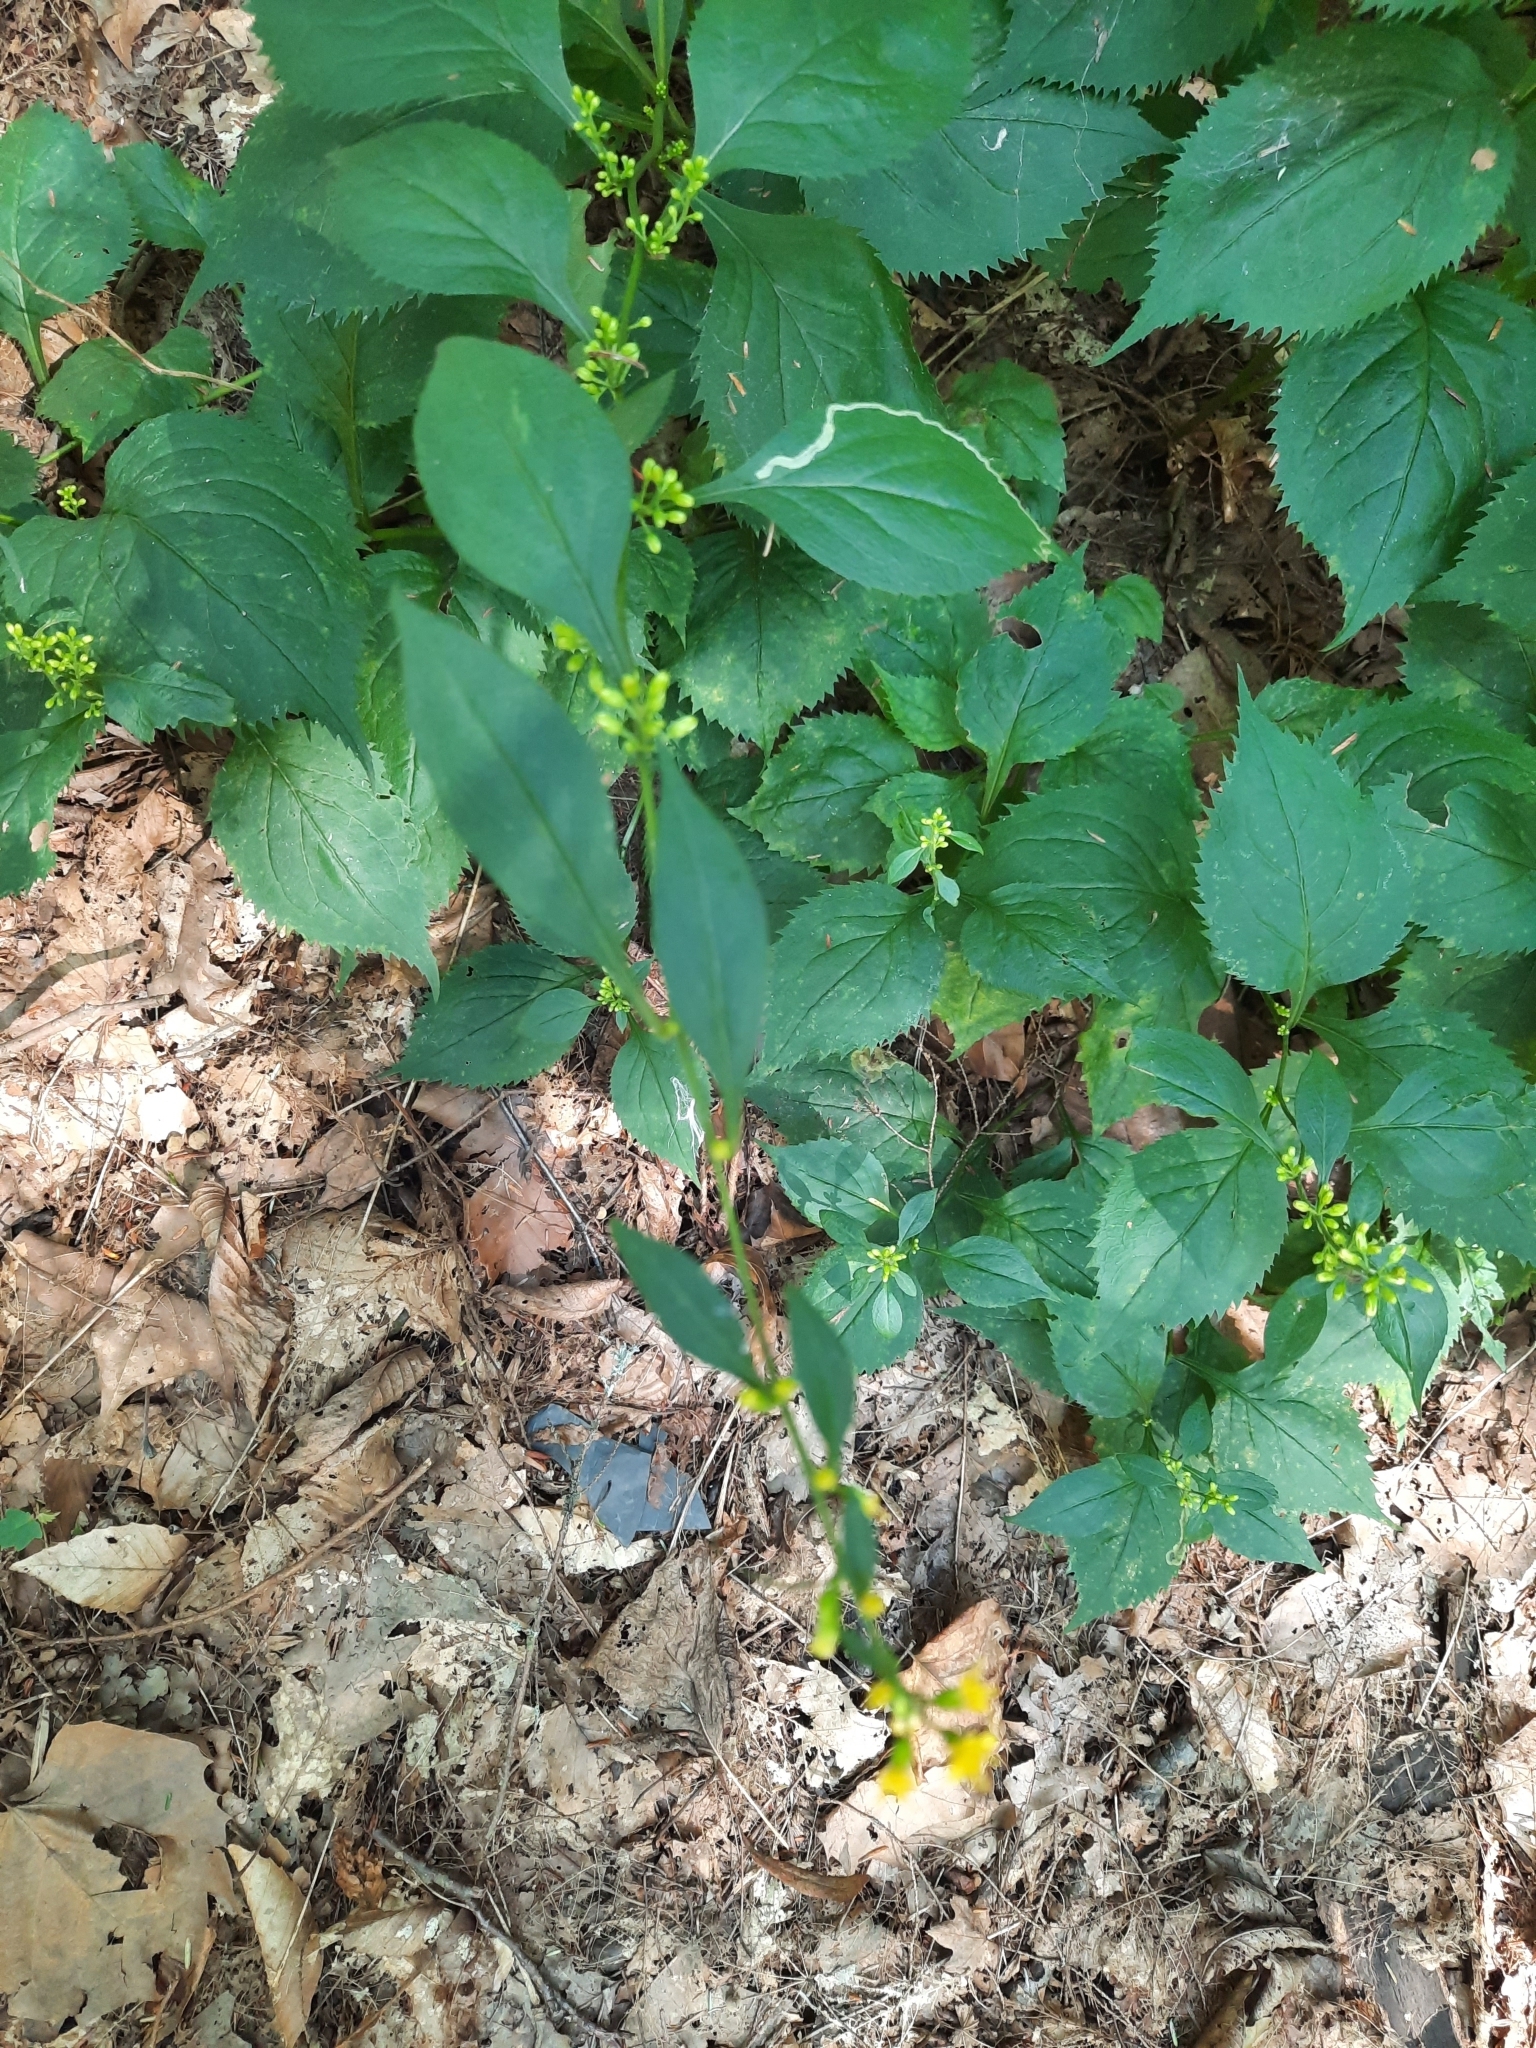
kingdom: Plantae
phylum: Tracheophyta
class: Magnoliopsida
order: Asterales
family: Asteraceae
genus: Solidago
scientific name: Solidago flexicaulis
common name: Zig-zag goldenrod
